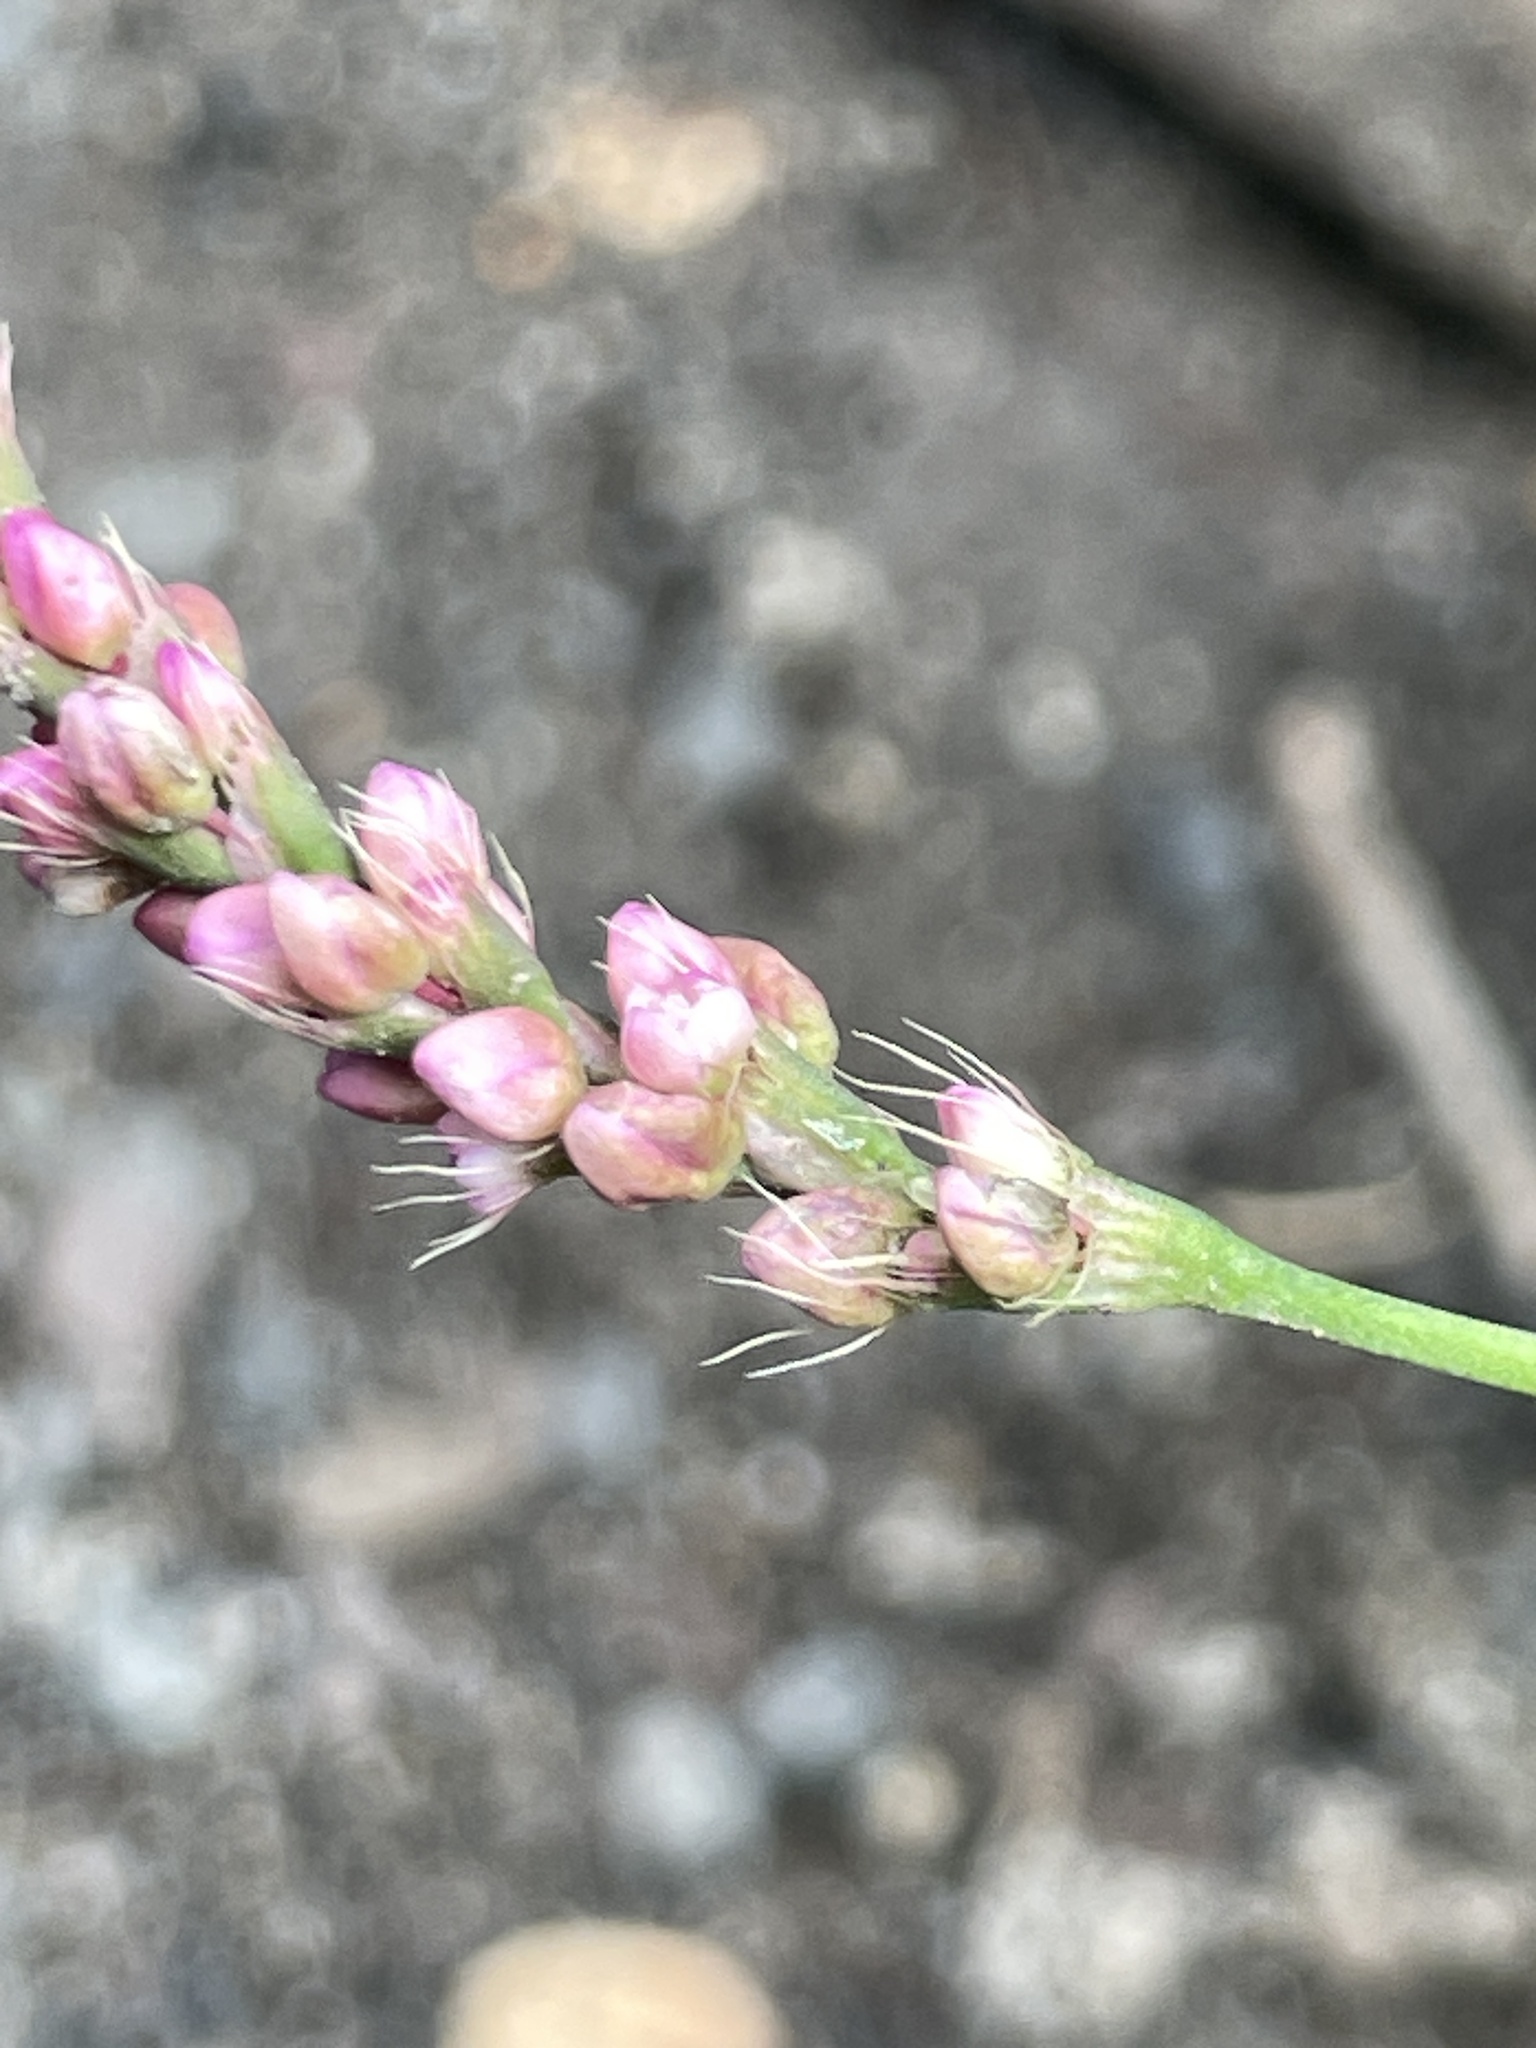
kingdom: Plantae
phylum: Tracheophyta
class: Magnoliopsida
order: Caryophyllales
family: Polygonaceae
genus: Persicaria
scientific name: Persicaria longiseta
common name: Bristly lady's-thumb
